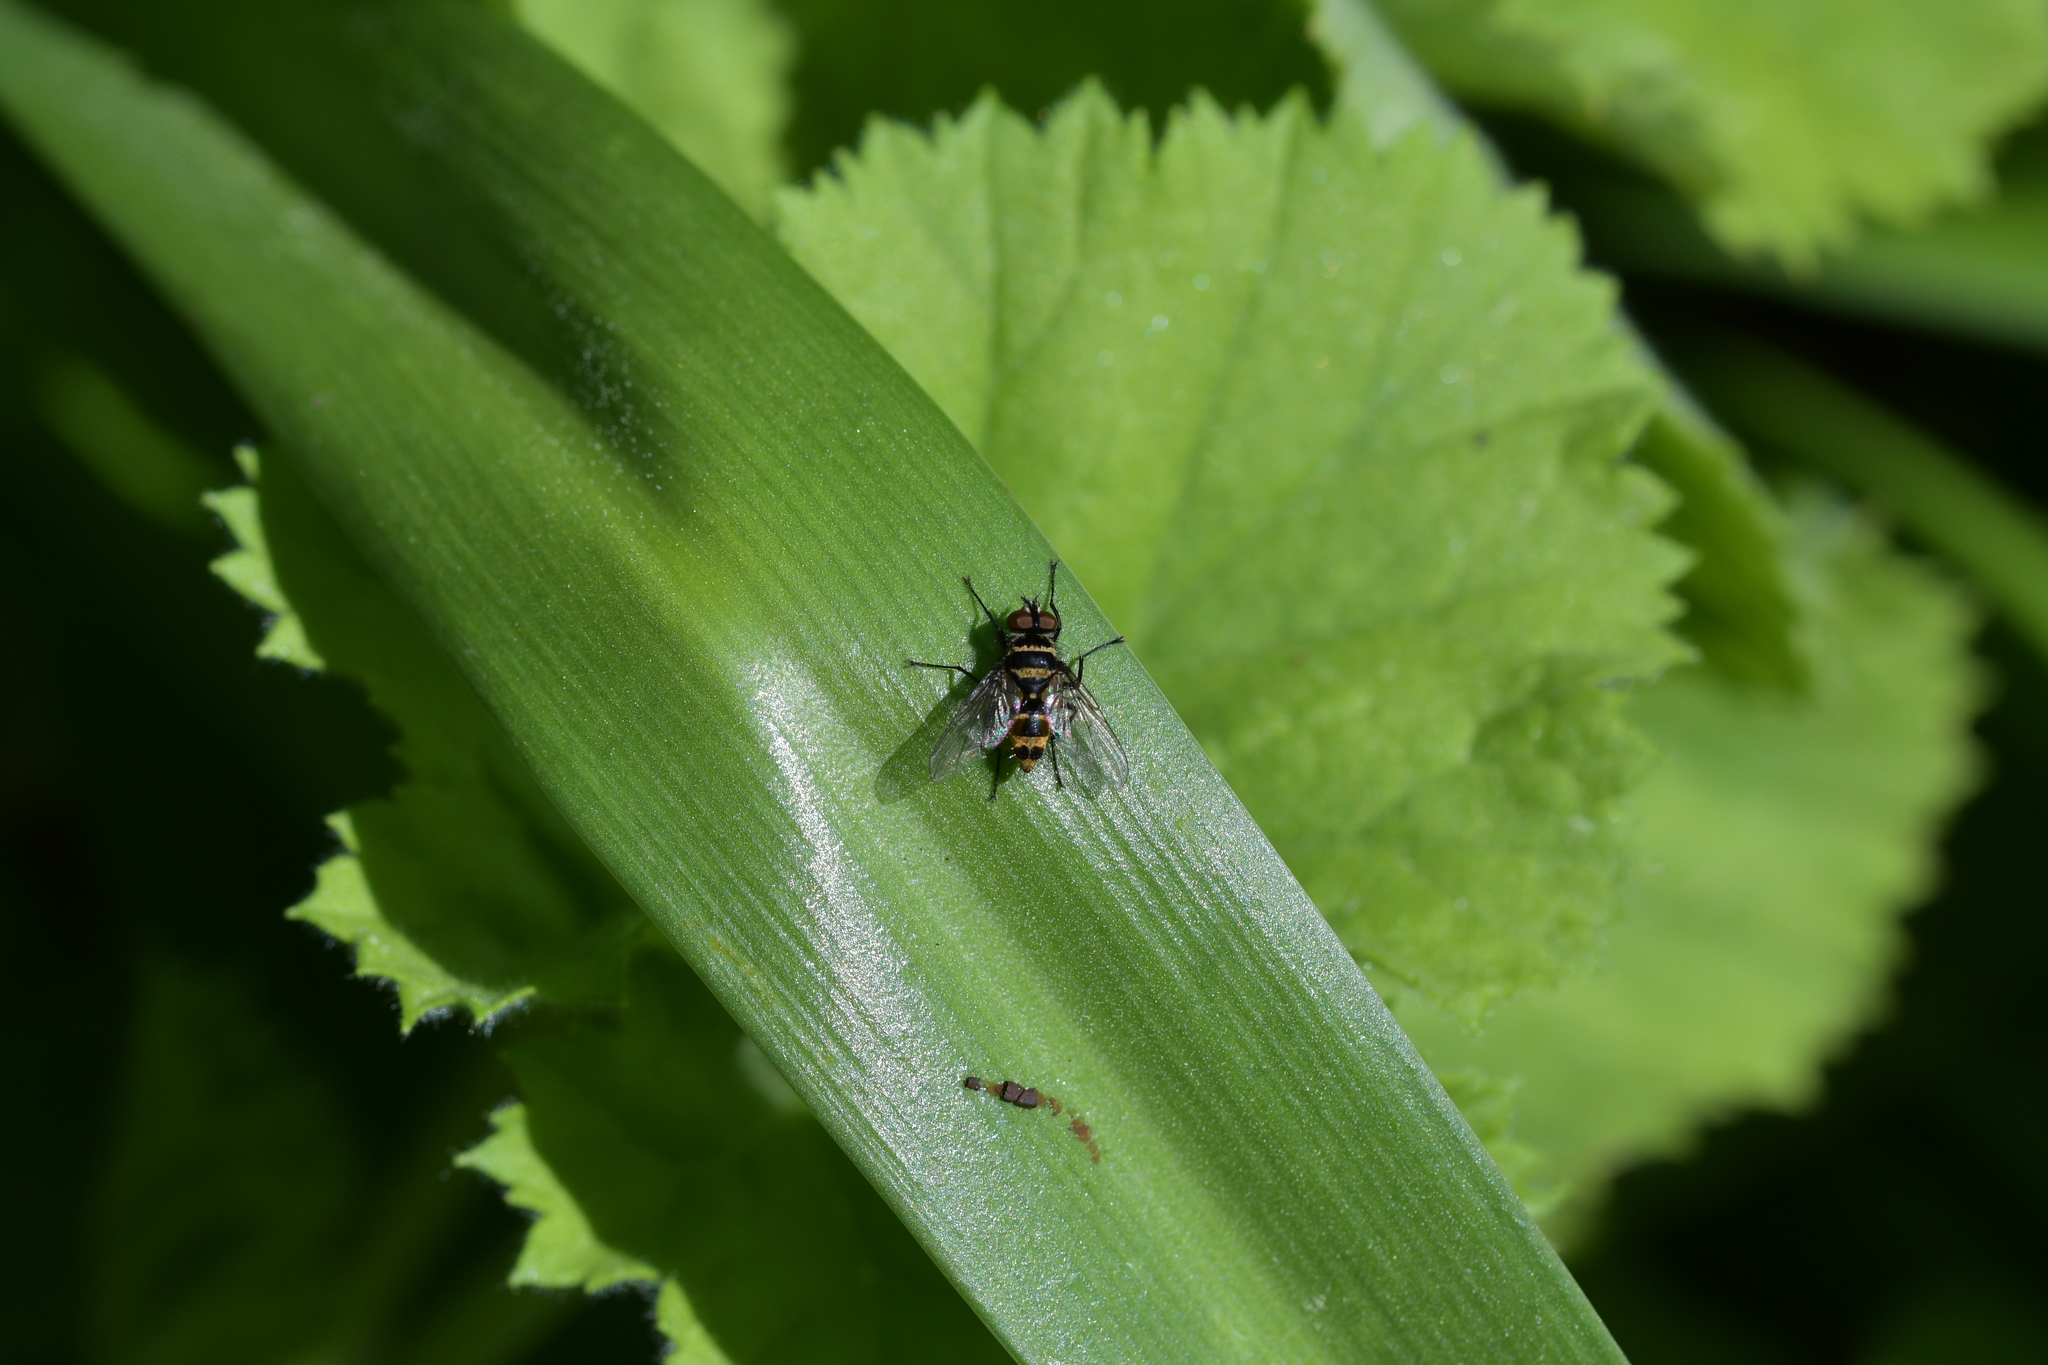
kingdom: Animalia
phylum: Arthropoda
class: Insecta
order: Diptera
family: Tachinidae
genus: Trigonospila
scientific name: Trigonospila brevifacies
